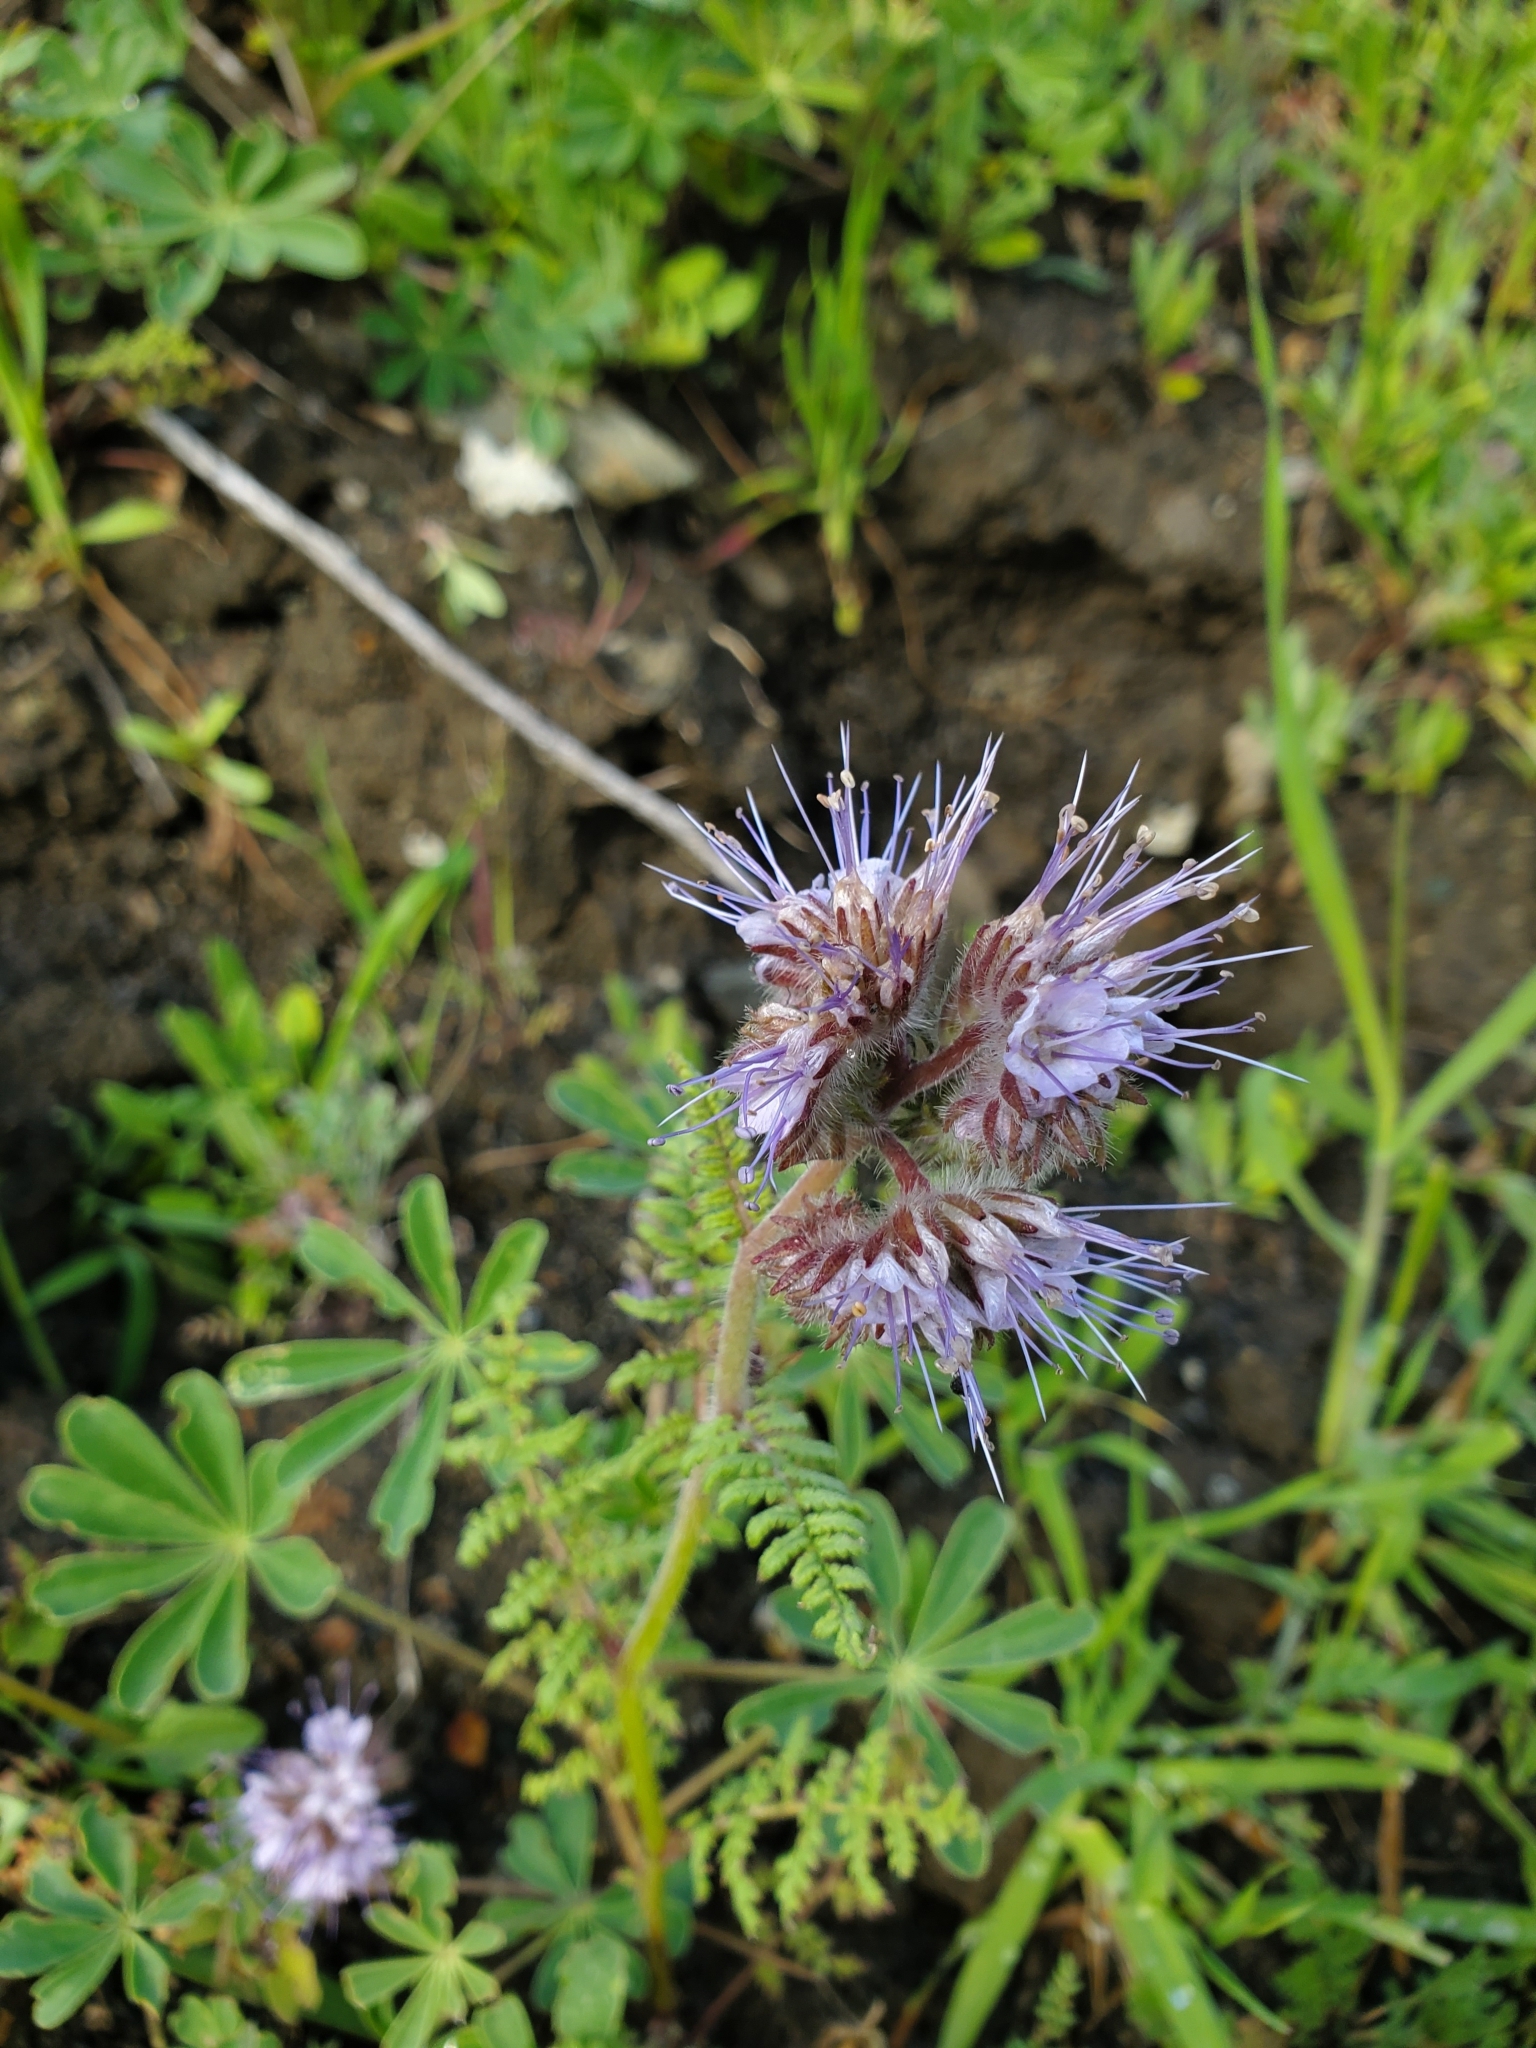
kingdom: Plantae
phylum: Tracheophyta
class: Magnoliopsida
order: Boraginales
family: Hydrophyllaceae
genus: Phacelia
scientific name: Phacelia tanacetifolia
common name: Phacelia
